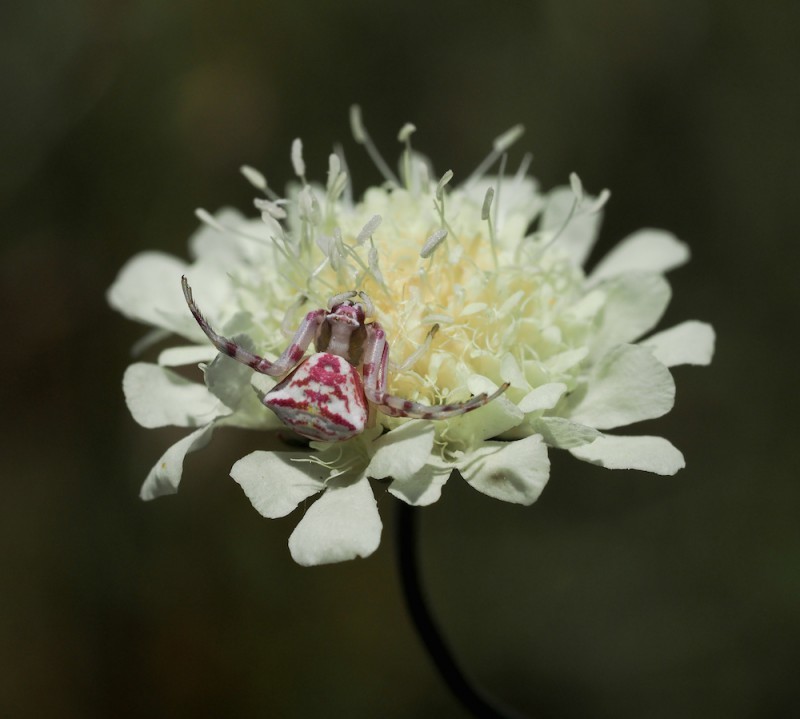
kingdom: Animalia
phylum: Arthropoda
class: Arachnida
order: Araneae
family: Thomisidae
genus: Thomisus
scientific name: Thomisus onustus
